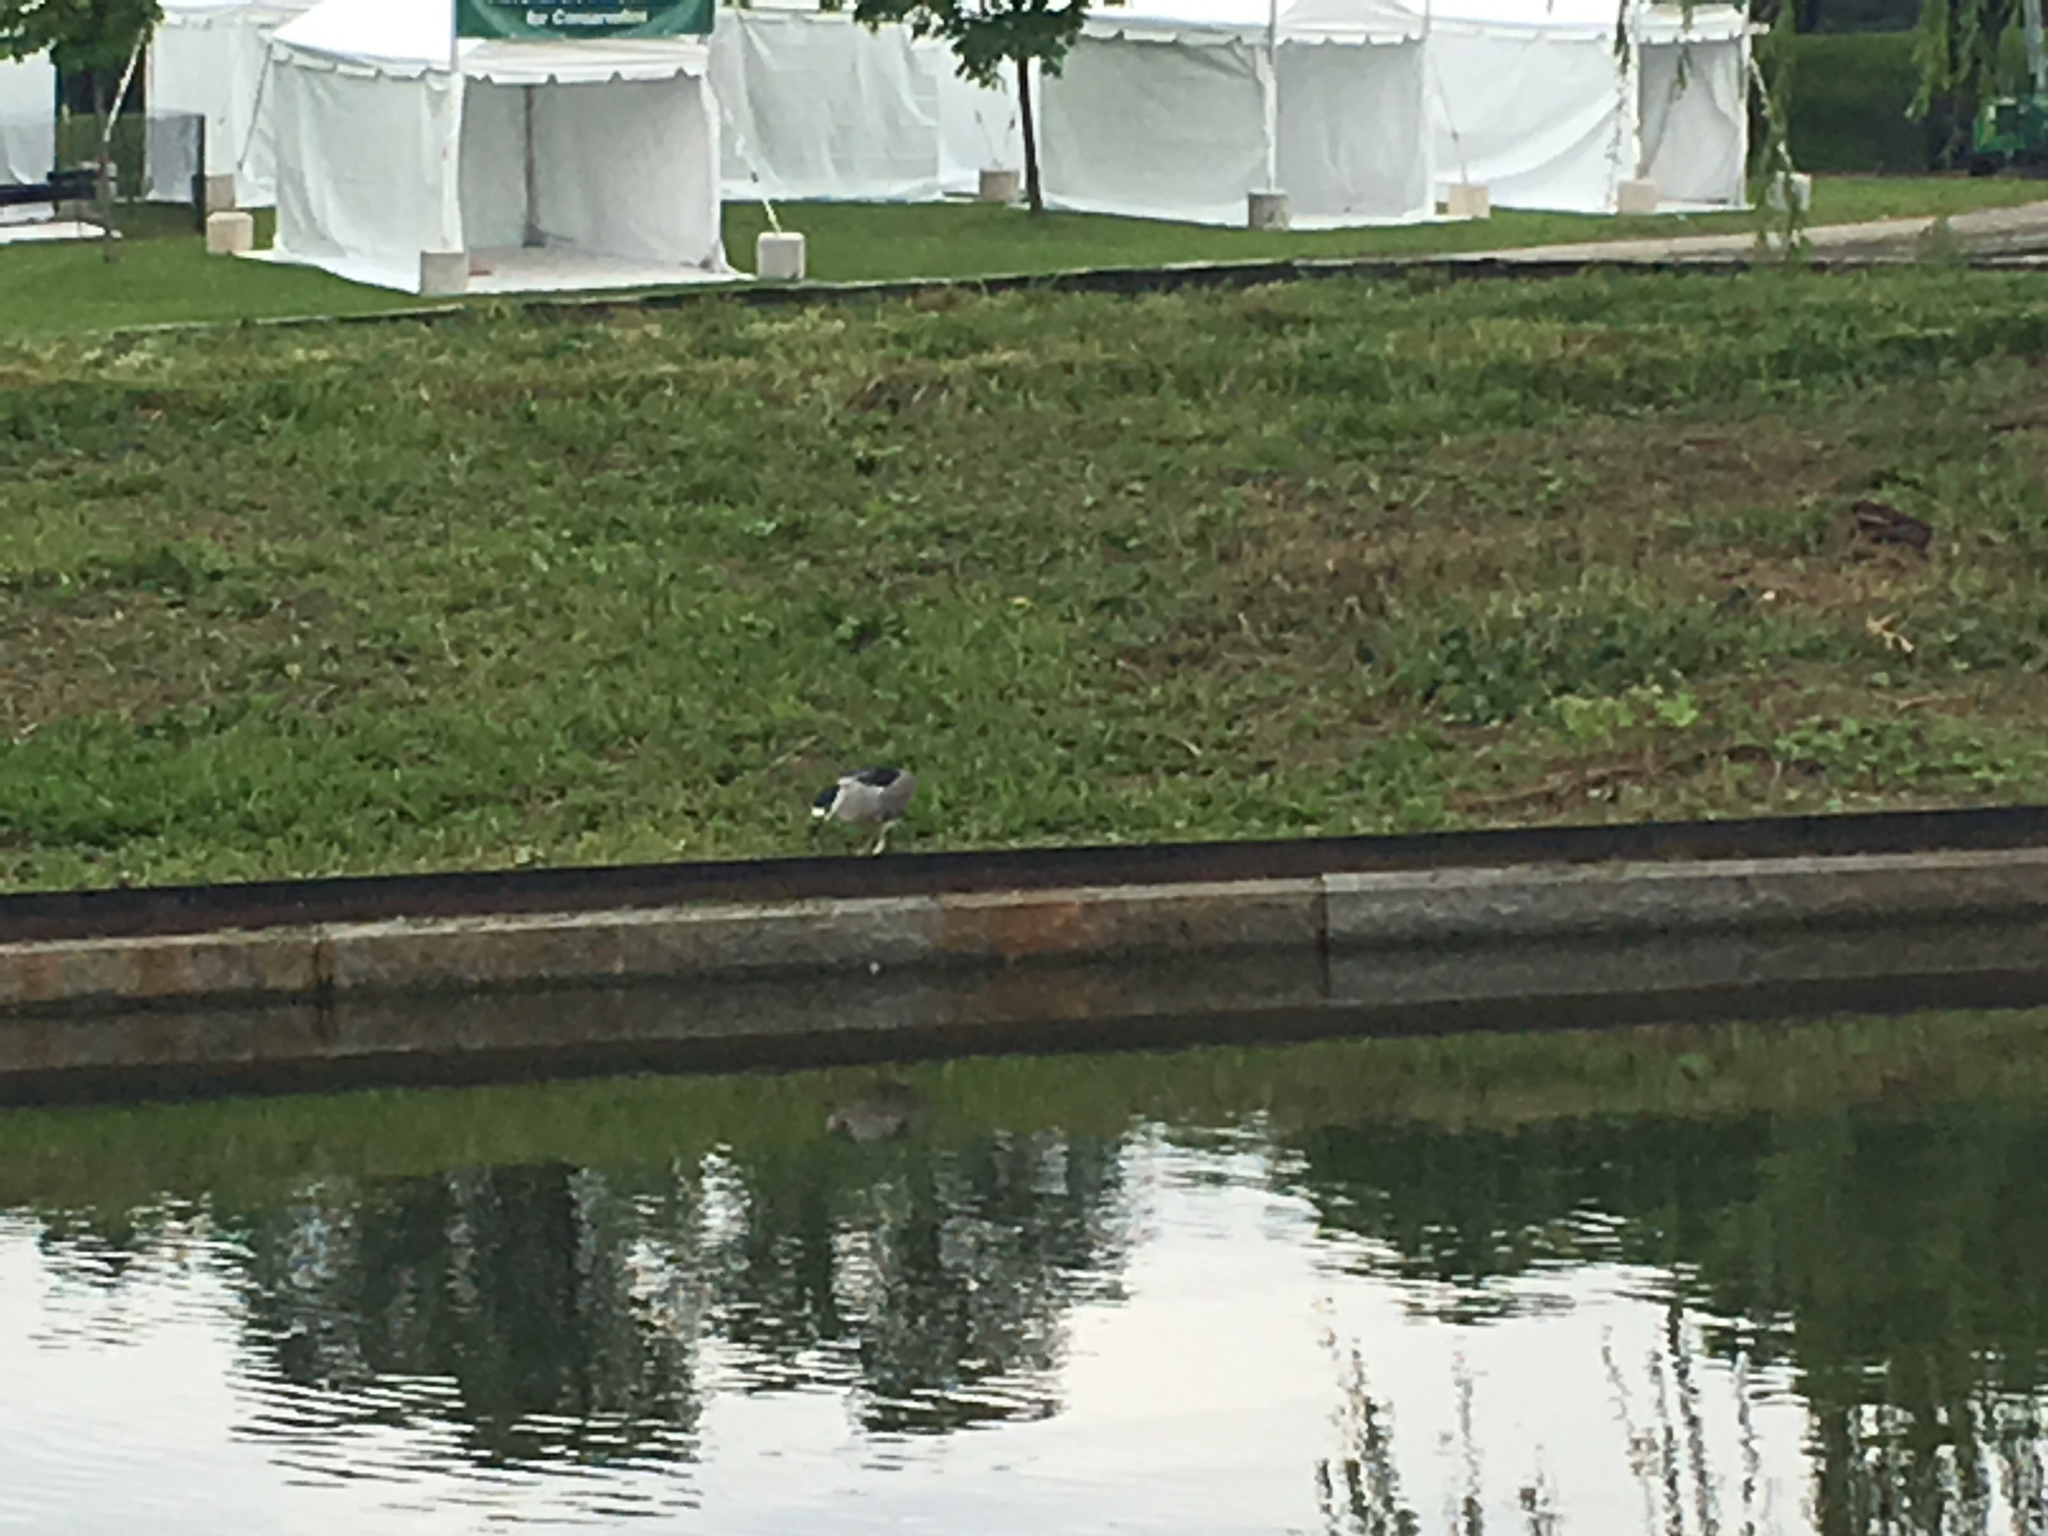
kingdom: Animalia
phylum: Chordata
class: Aves
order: Pelecaniformes
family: Ardeidae
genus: Nycticorax
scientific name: Nycticorax nycticorax
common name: Black-crowned night heron
